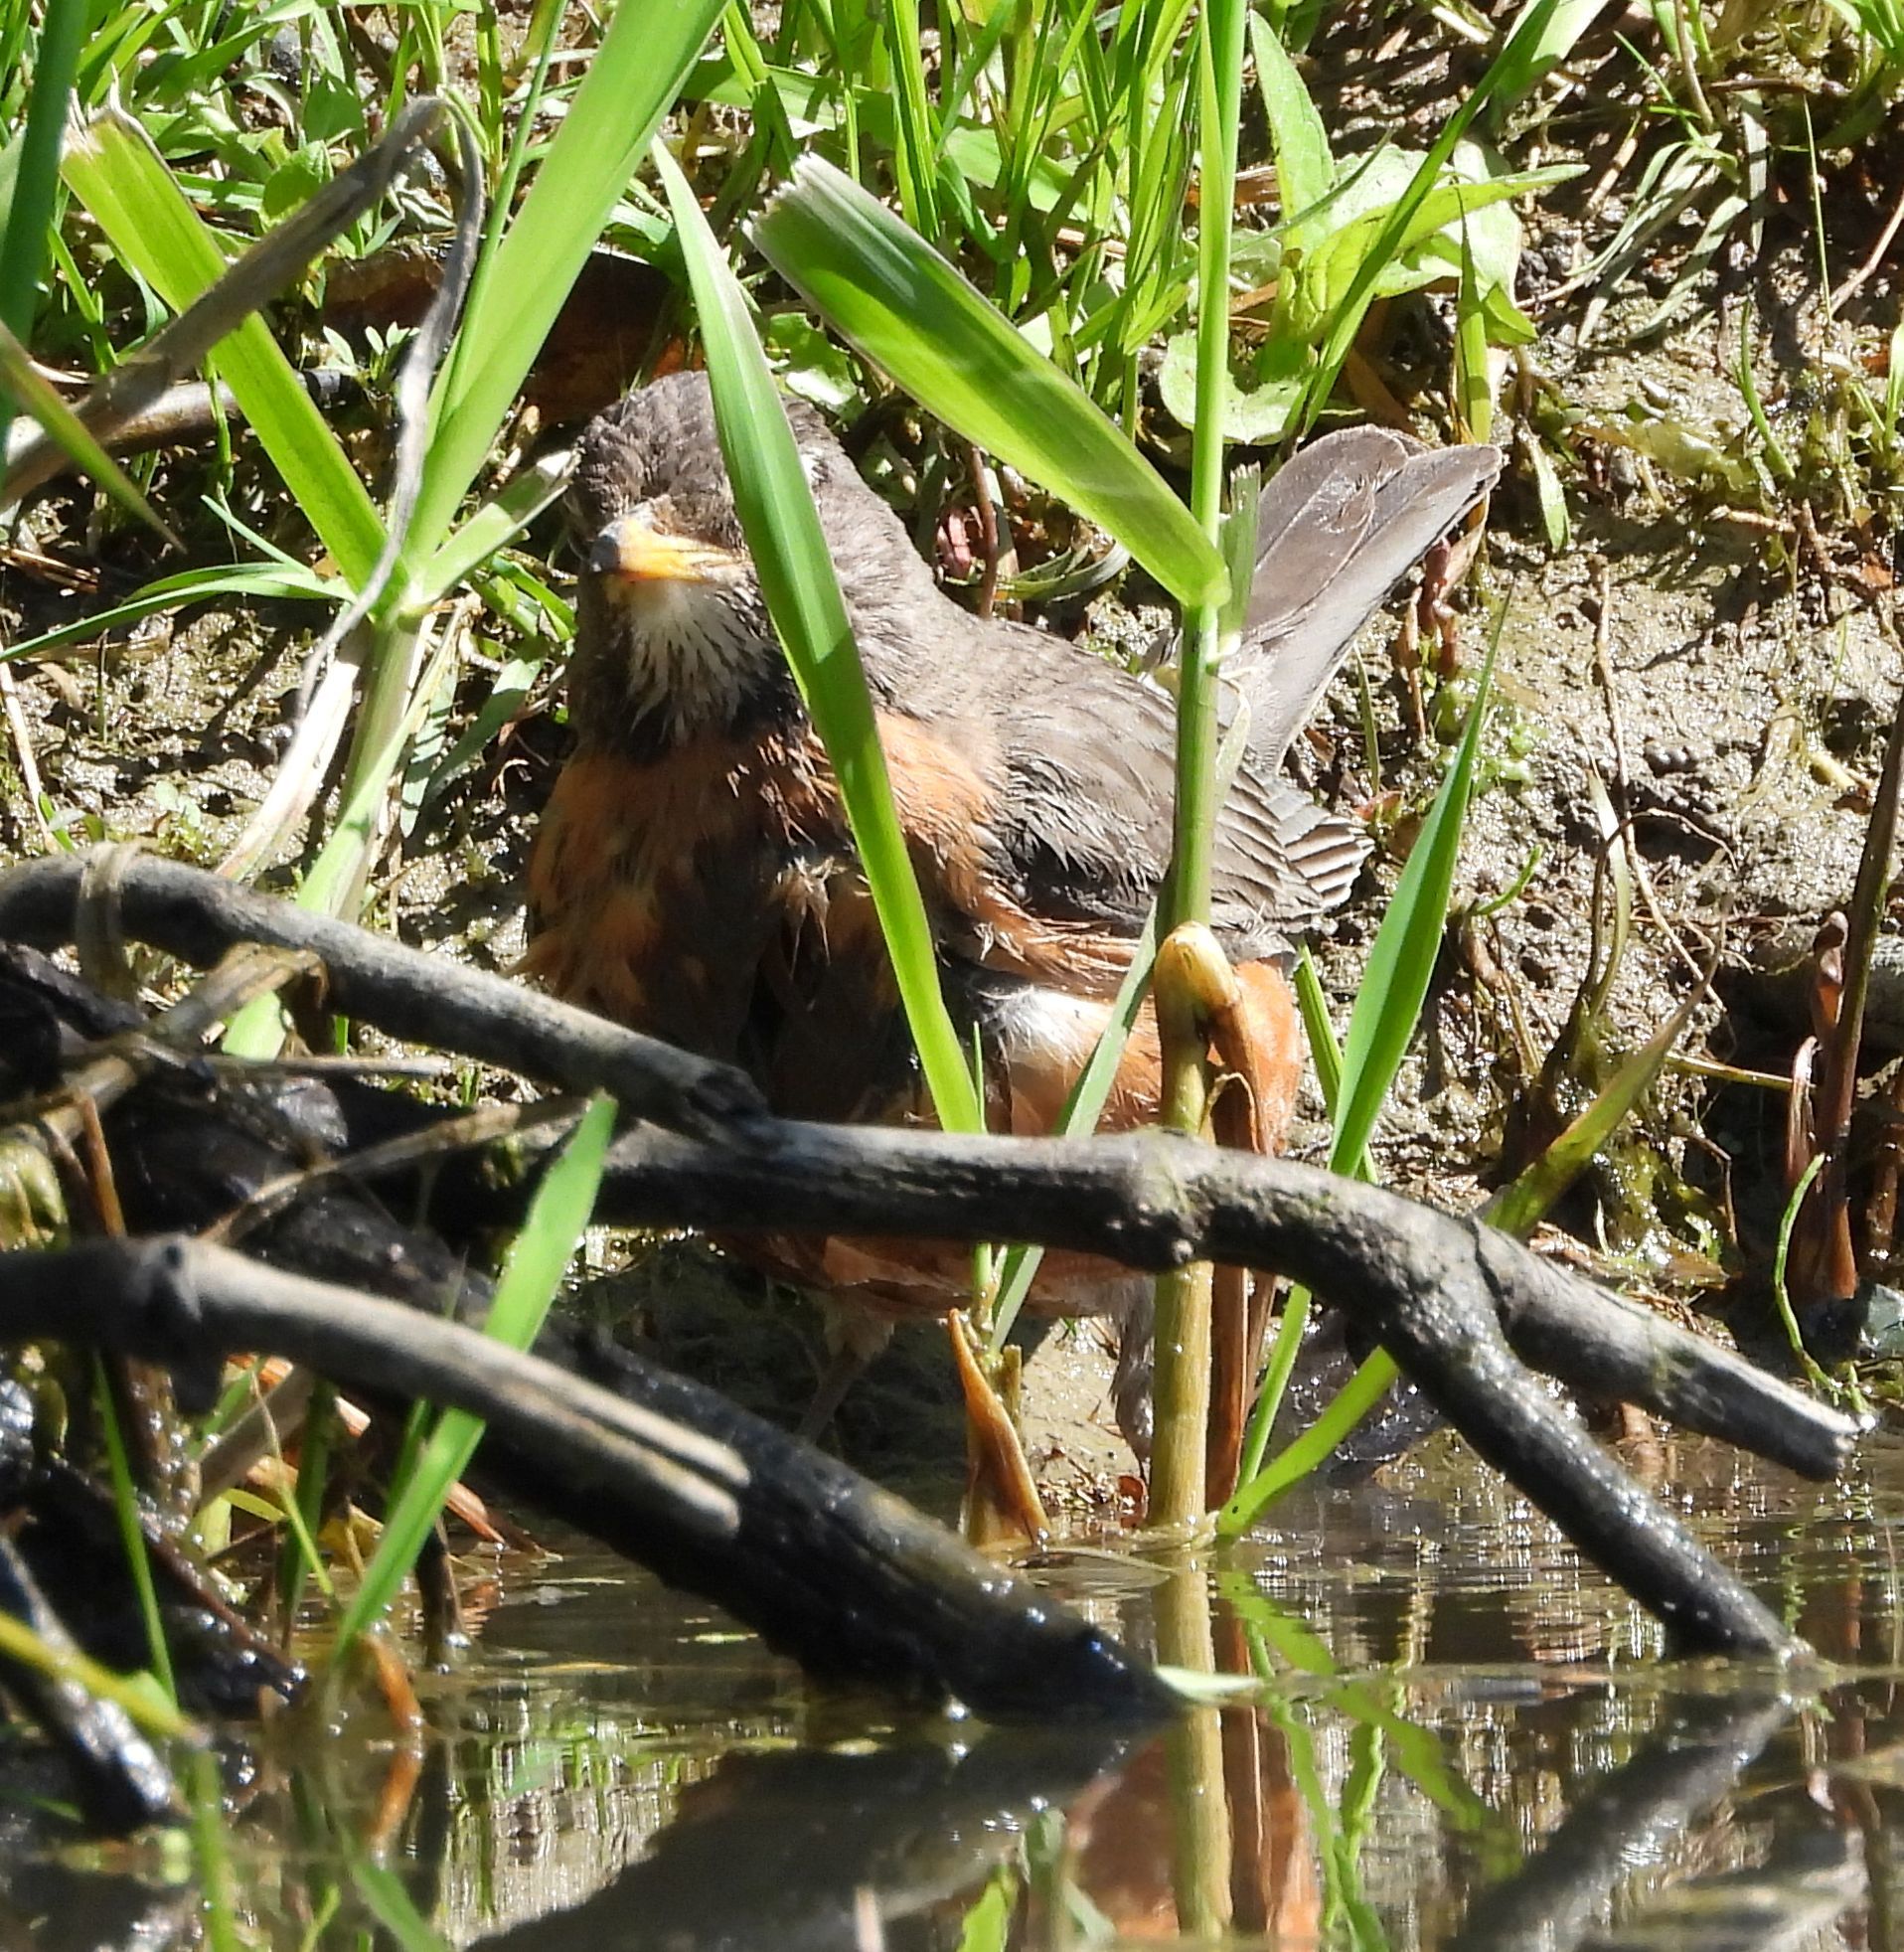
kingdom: Animalia
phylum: Chordata
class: Aves
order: Passeriformes
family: Turdidae
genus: Turdus
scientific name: Turdus migratorius
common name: American robin
